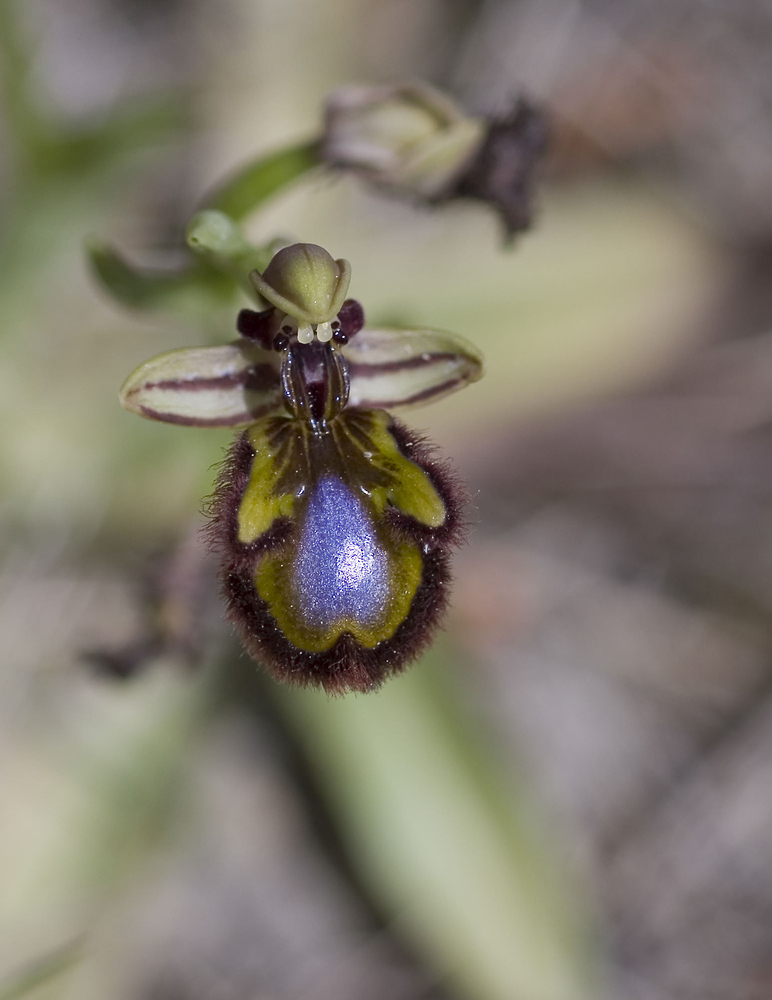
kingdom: Plantae
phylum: Tracheophyta
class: Liliopsida
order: Asparagales
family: Orchidaceae
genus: Ophrys
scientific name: Ophrys speculum
